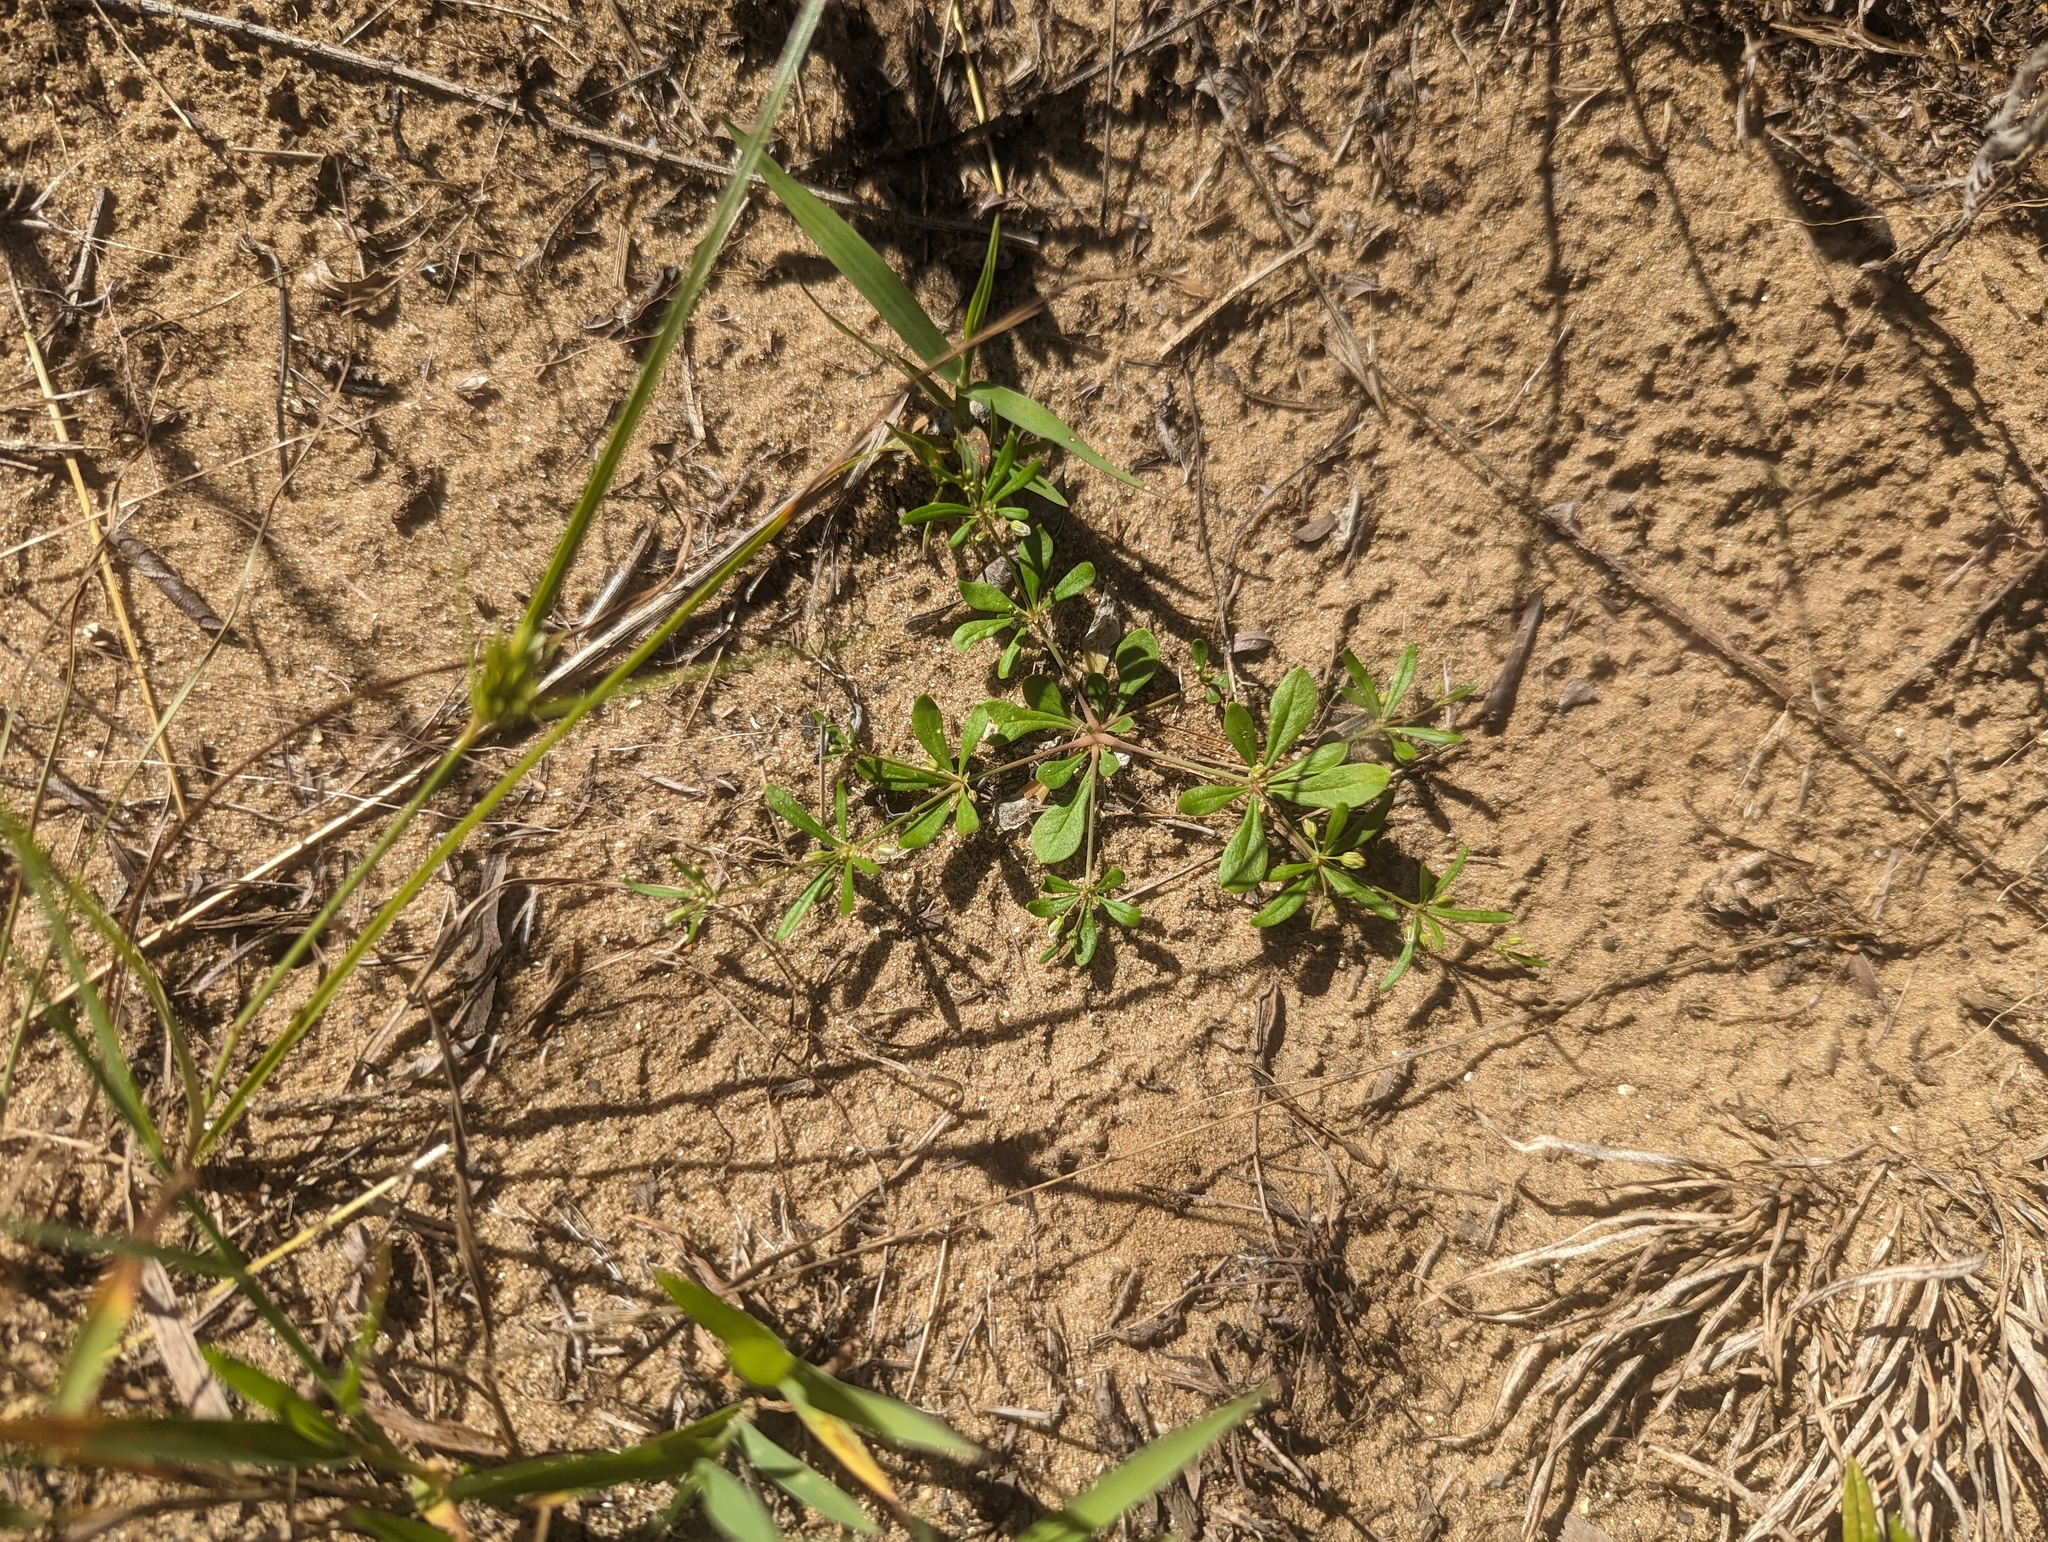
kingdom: Plantae
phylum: Tracheophyta
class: Magnoliopsida
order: Caryophyllales
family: Molluginaceae
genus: Mollugo
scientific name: Mollugo verticillata
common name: Green carpetweed
